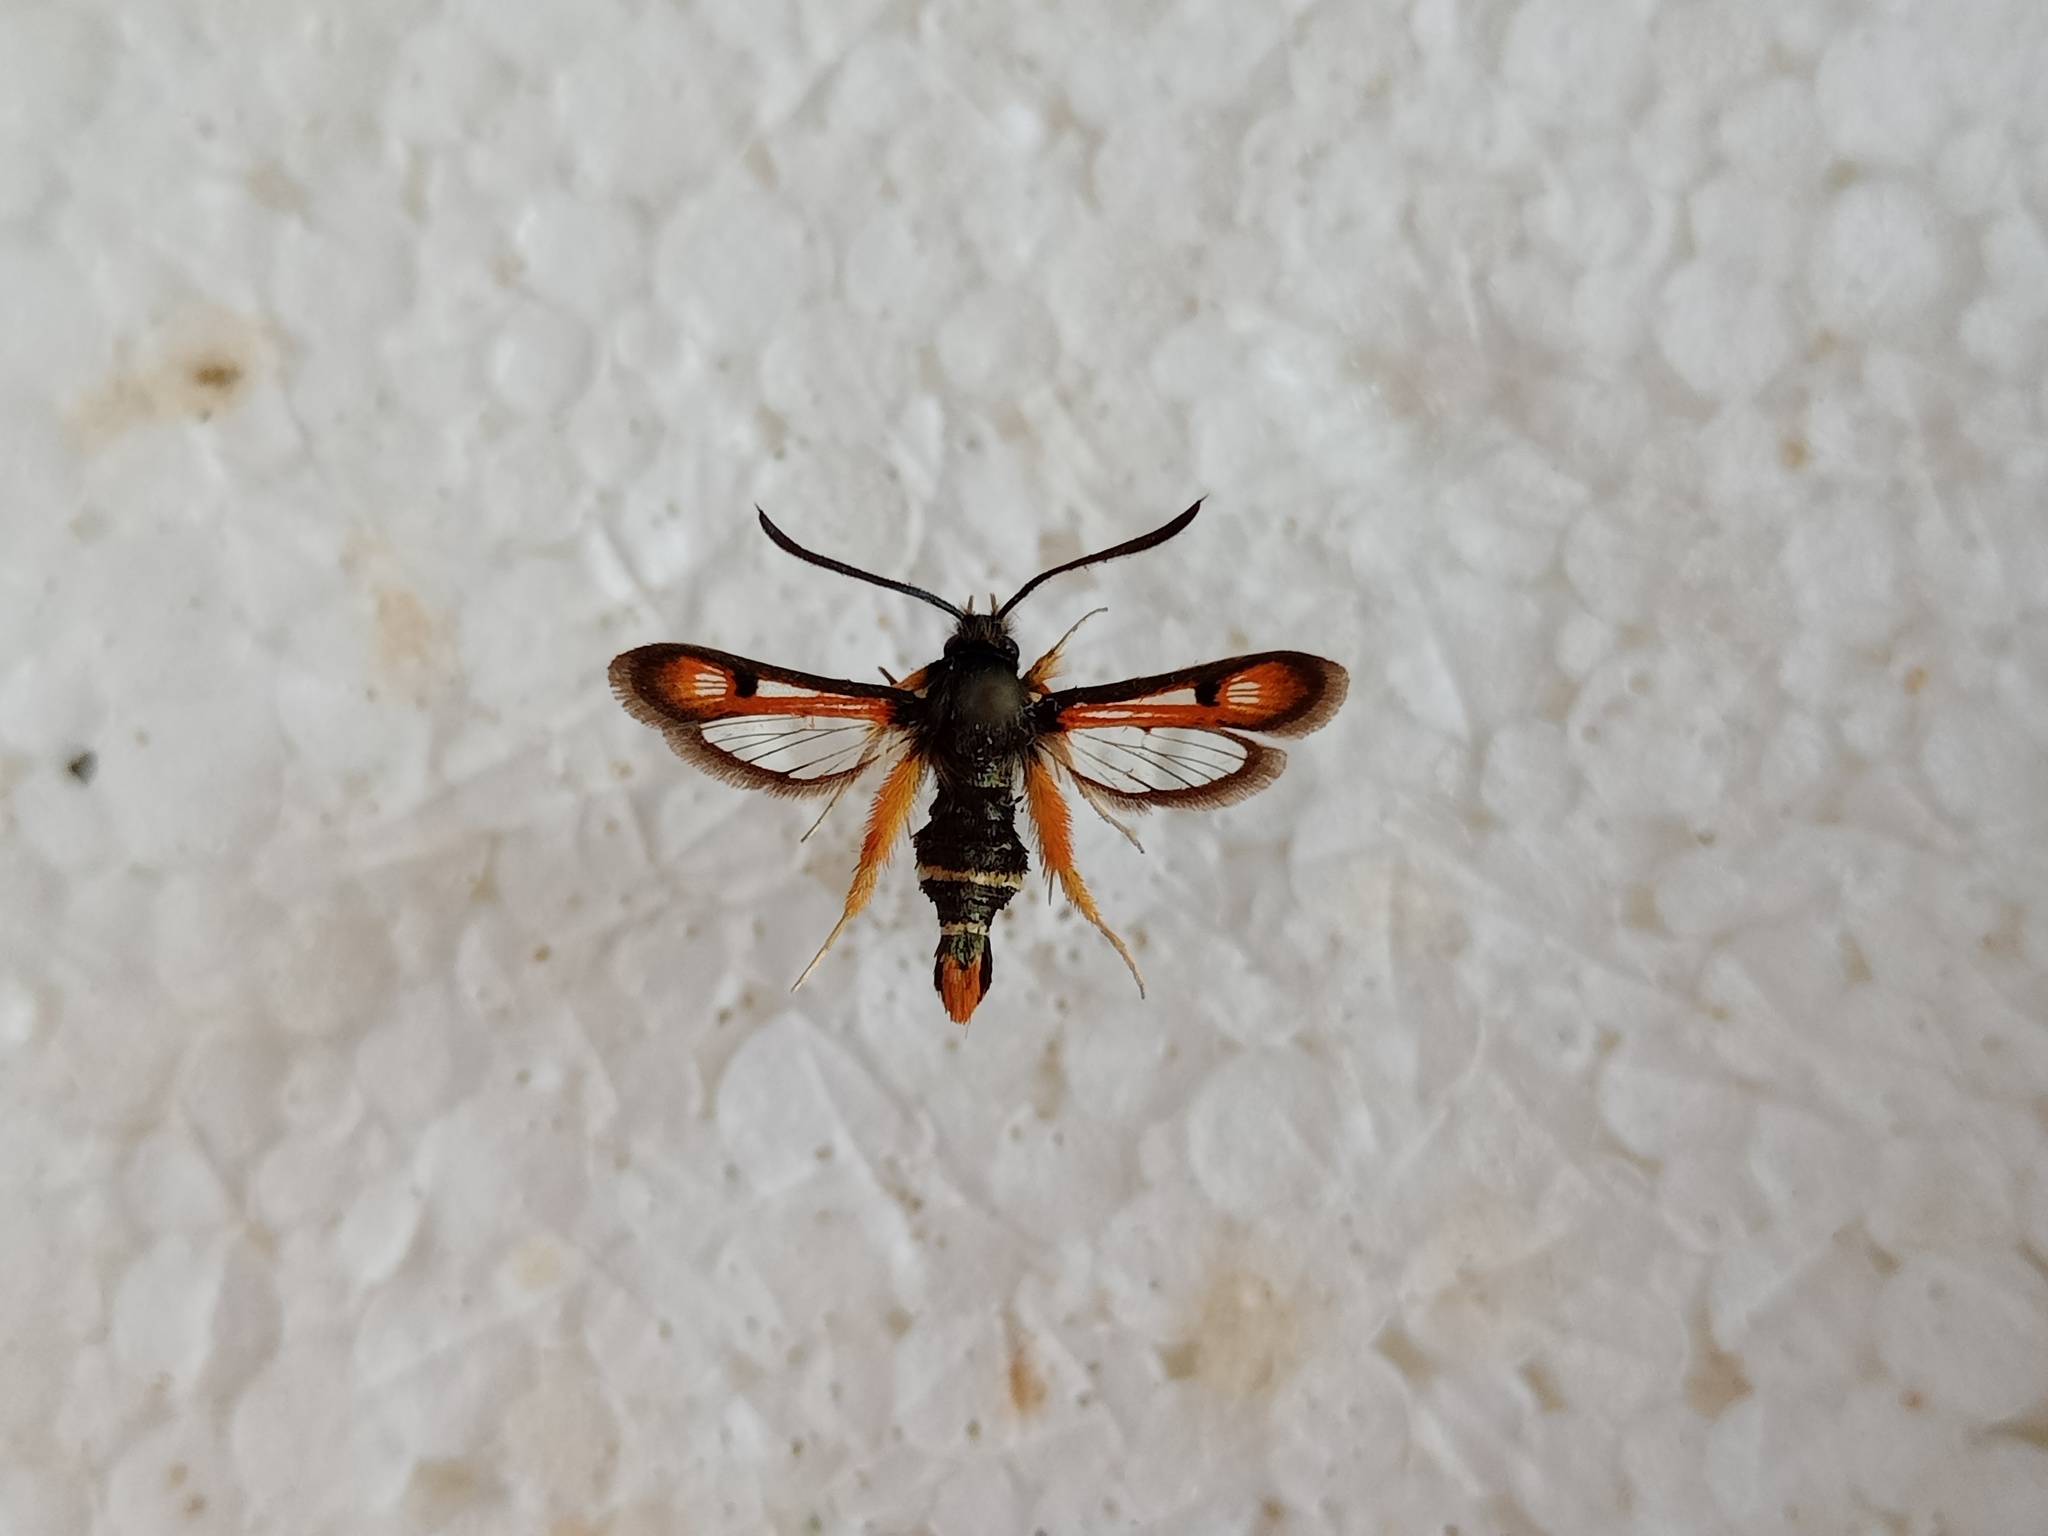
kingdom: Animalia
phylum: Arthropoda
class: Insecta
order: Lepidoptera
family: Sesiidae
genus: Pyropteron
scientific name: Pyropteron chrysidiforme
